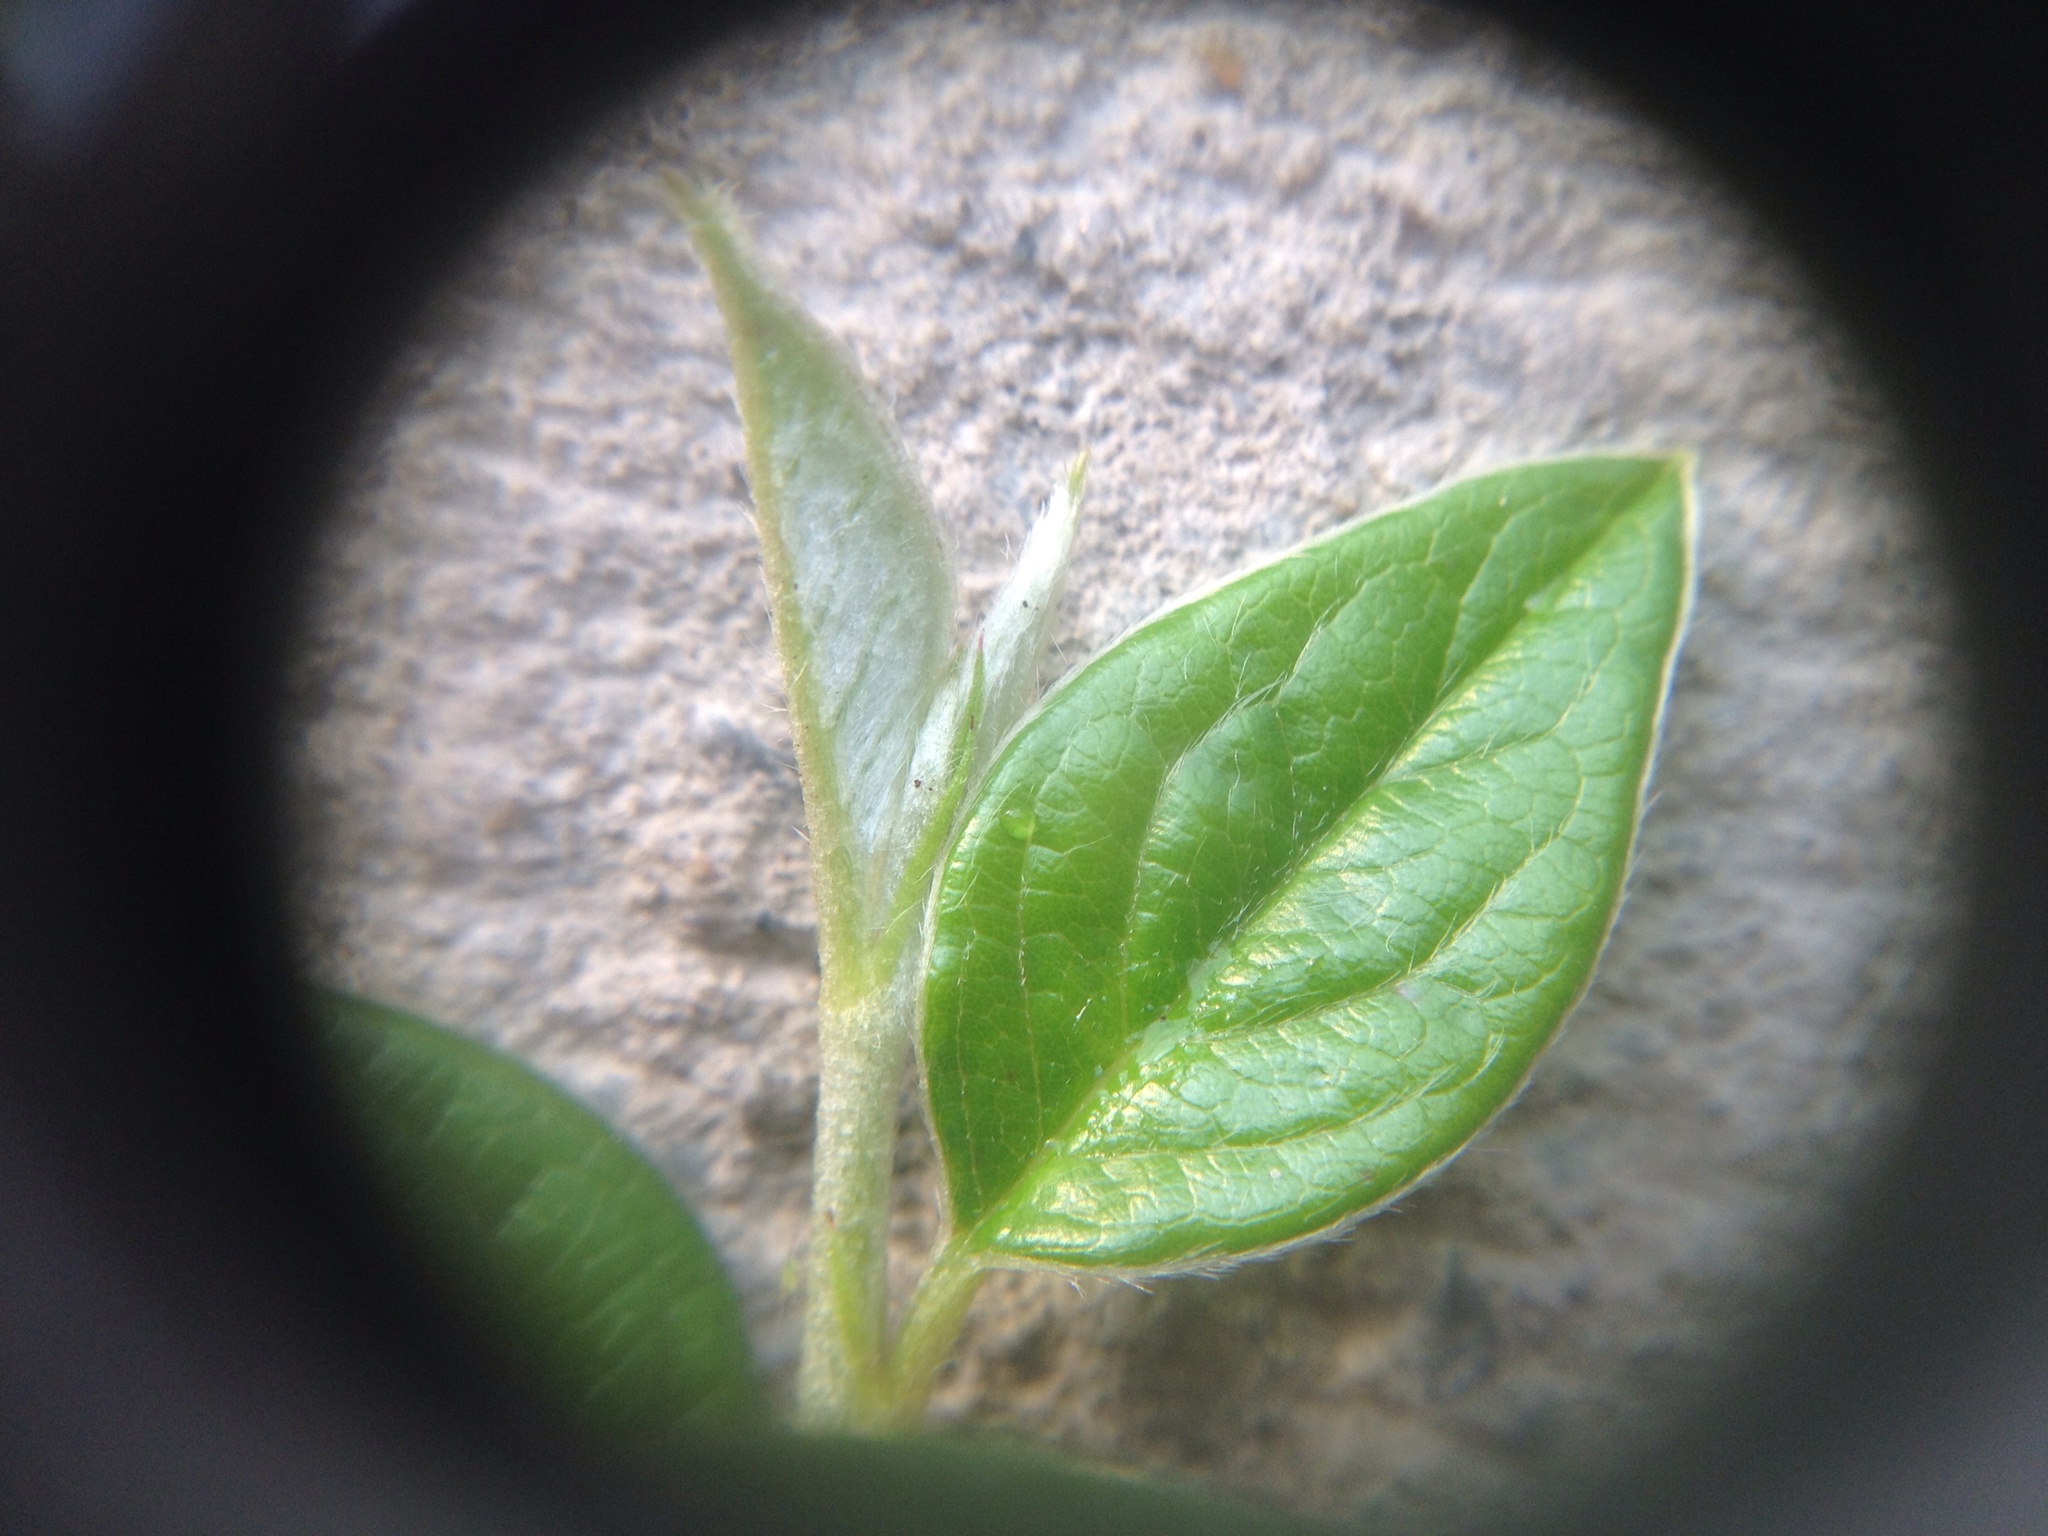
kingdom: Plantae
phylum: Tracheophyta
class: Magnoliopsida
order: Rosales
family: Rosaceae
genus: Cotoneaster
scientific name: Cotoneaster simonsii
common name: Himalayan cotoneaster
